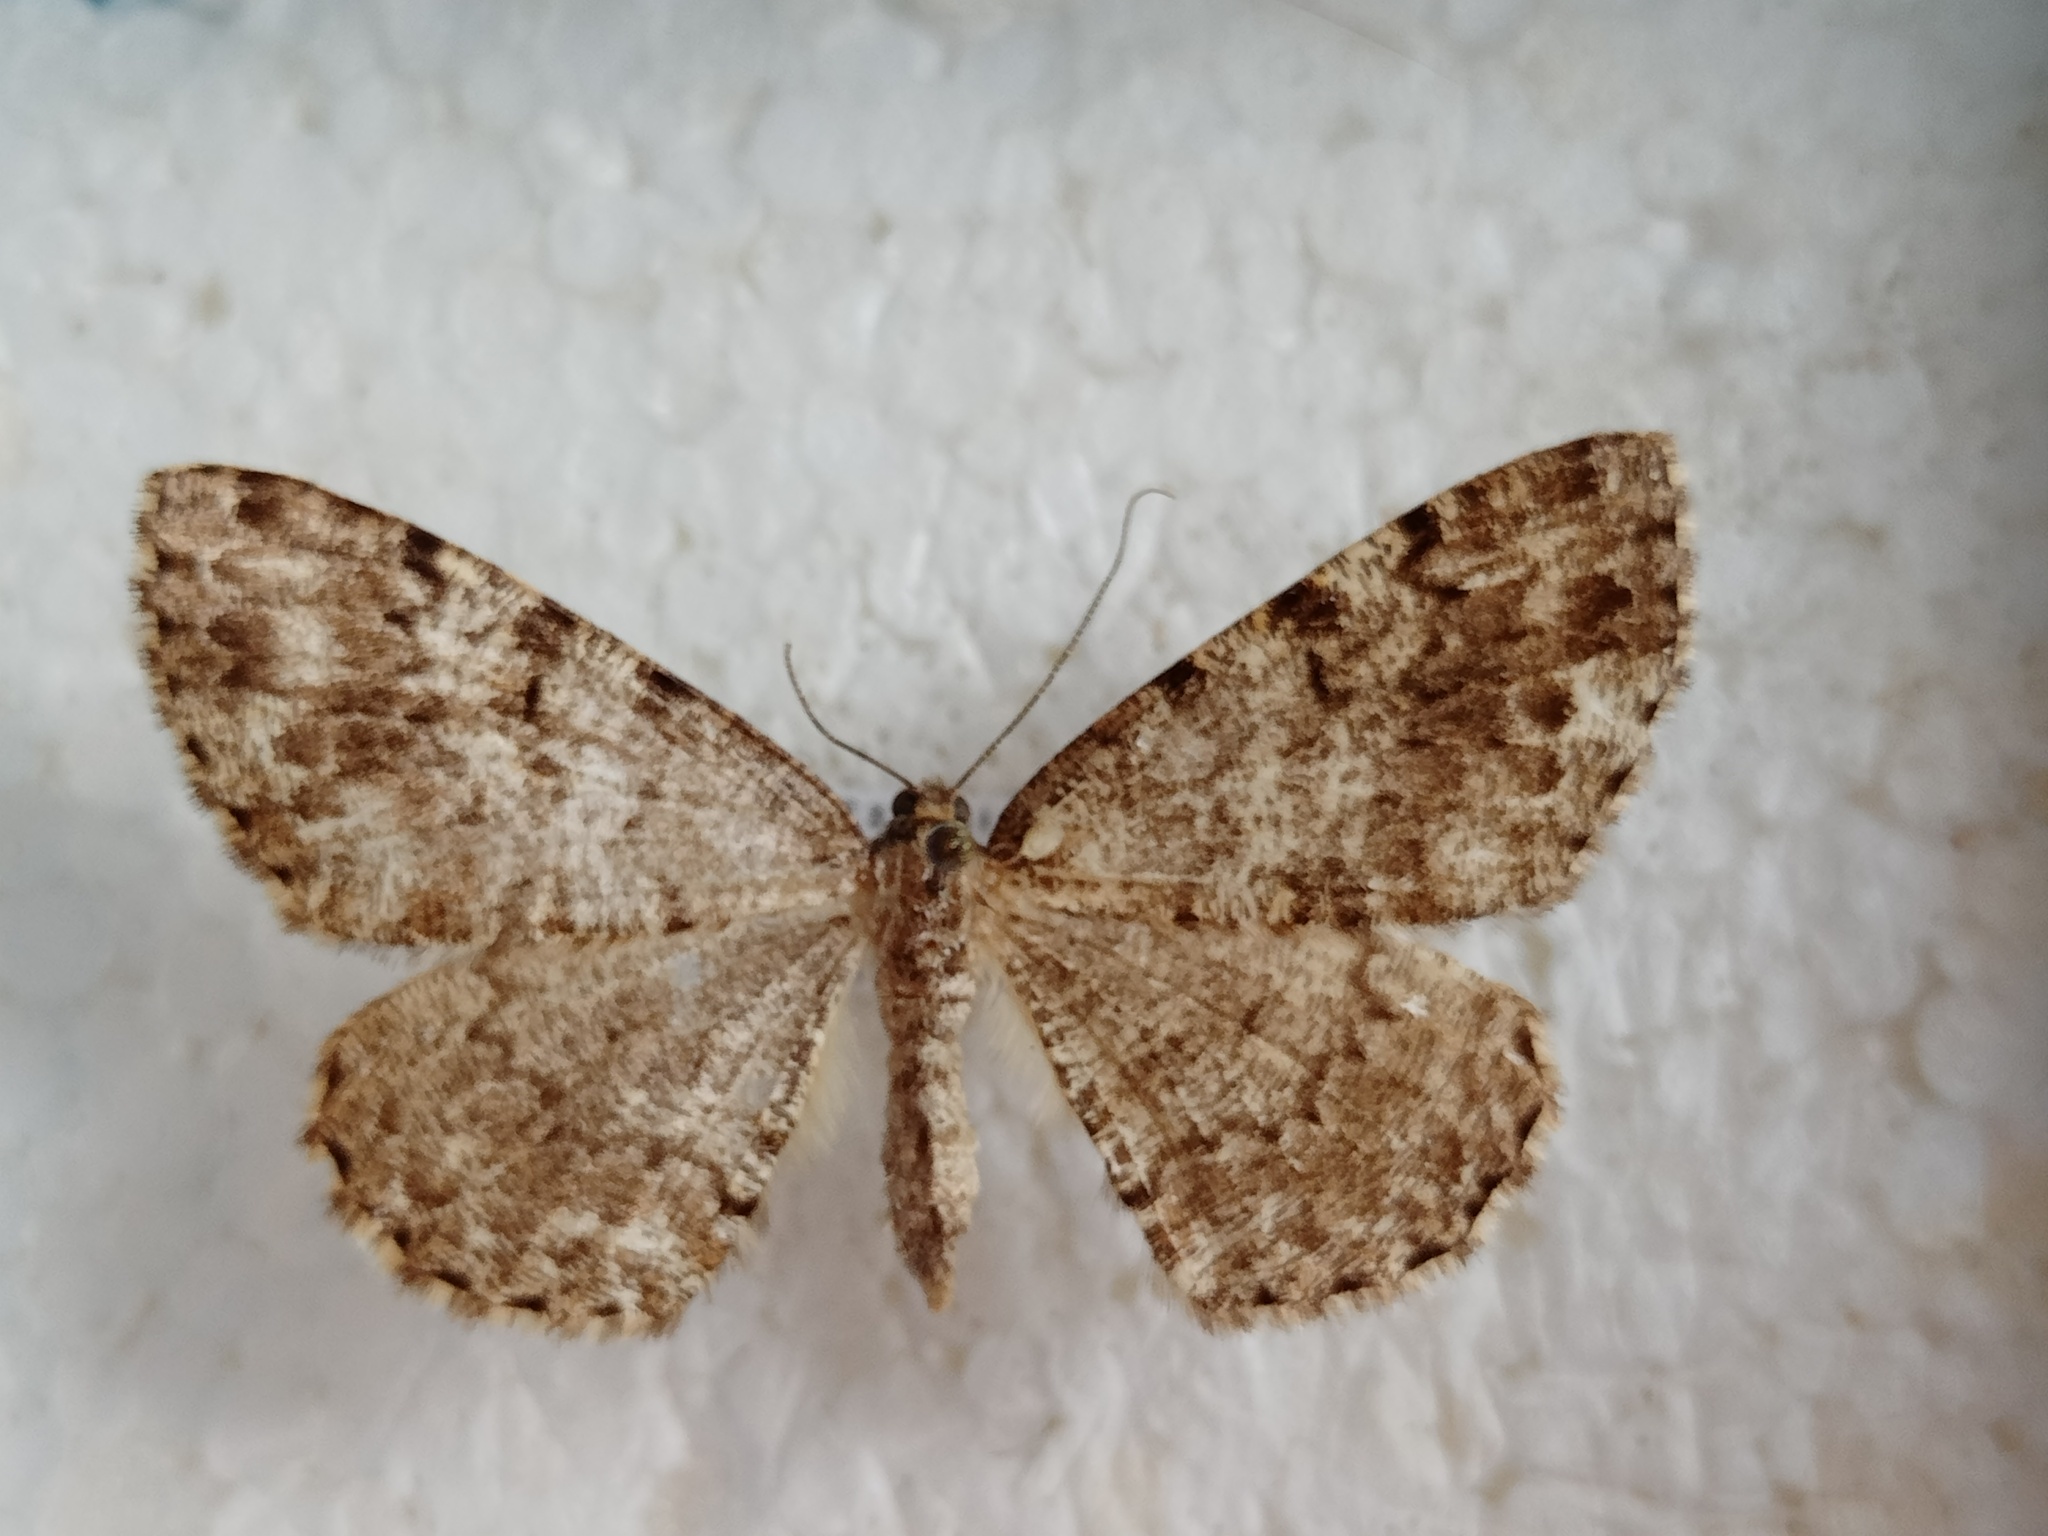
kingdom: Animalia
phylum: Arthropoda
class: Insecta
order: Lepidoptera
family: Geometridae
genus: Deileptenia
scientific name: Deileptenia ribeata
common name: Satin beauty
